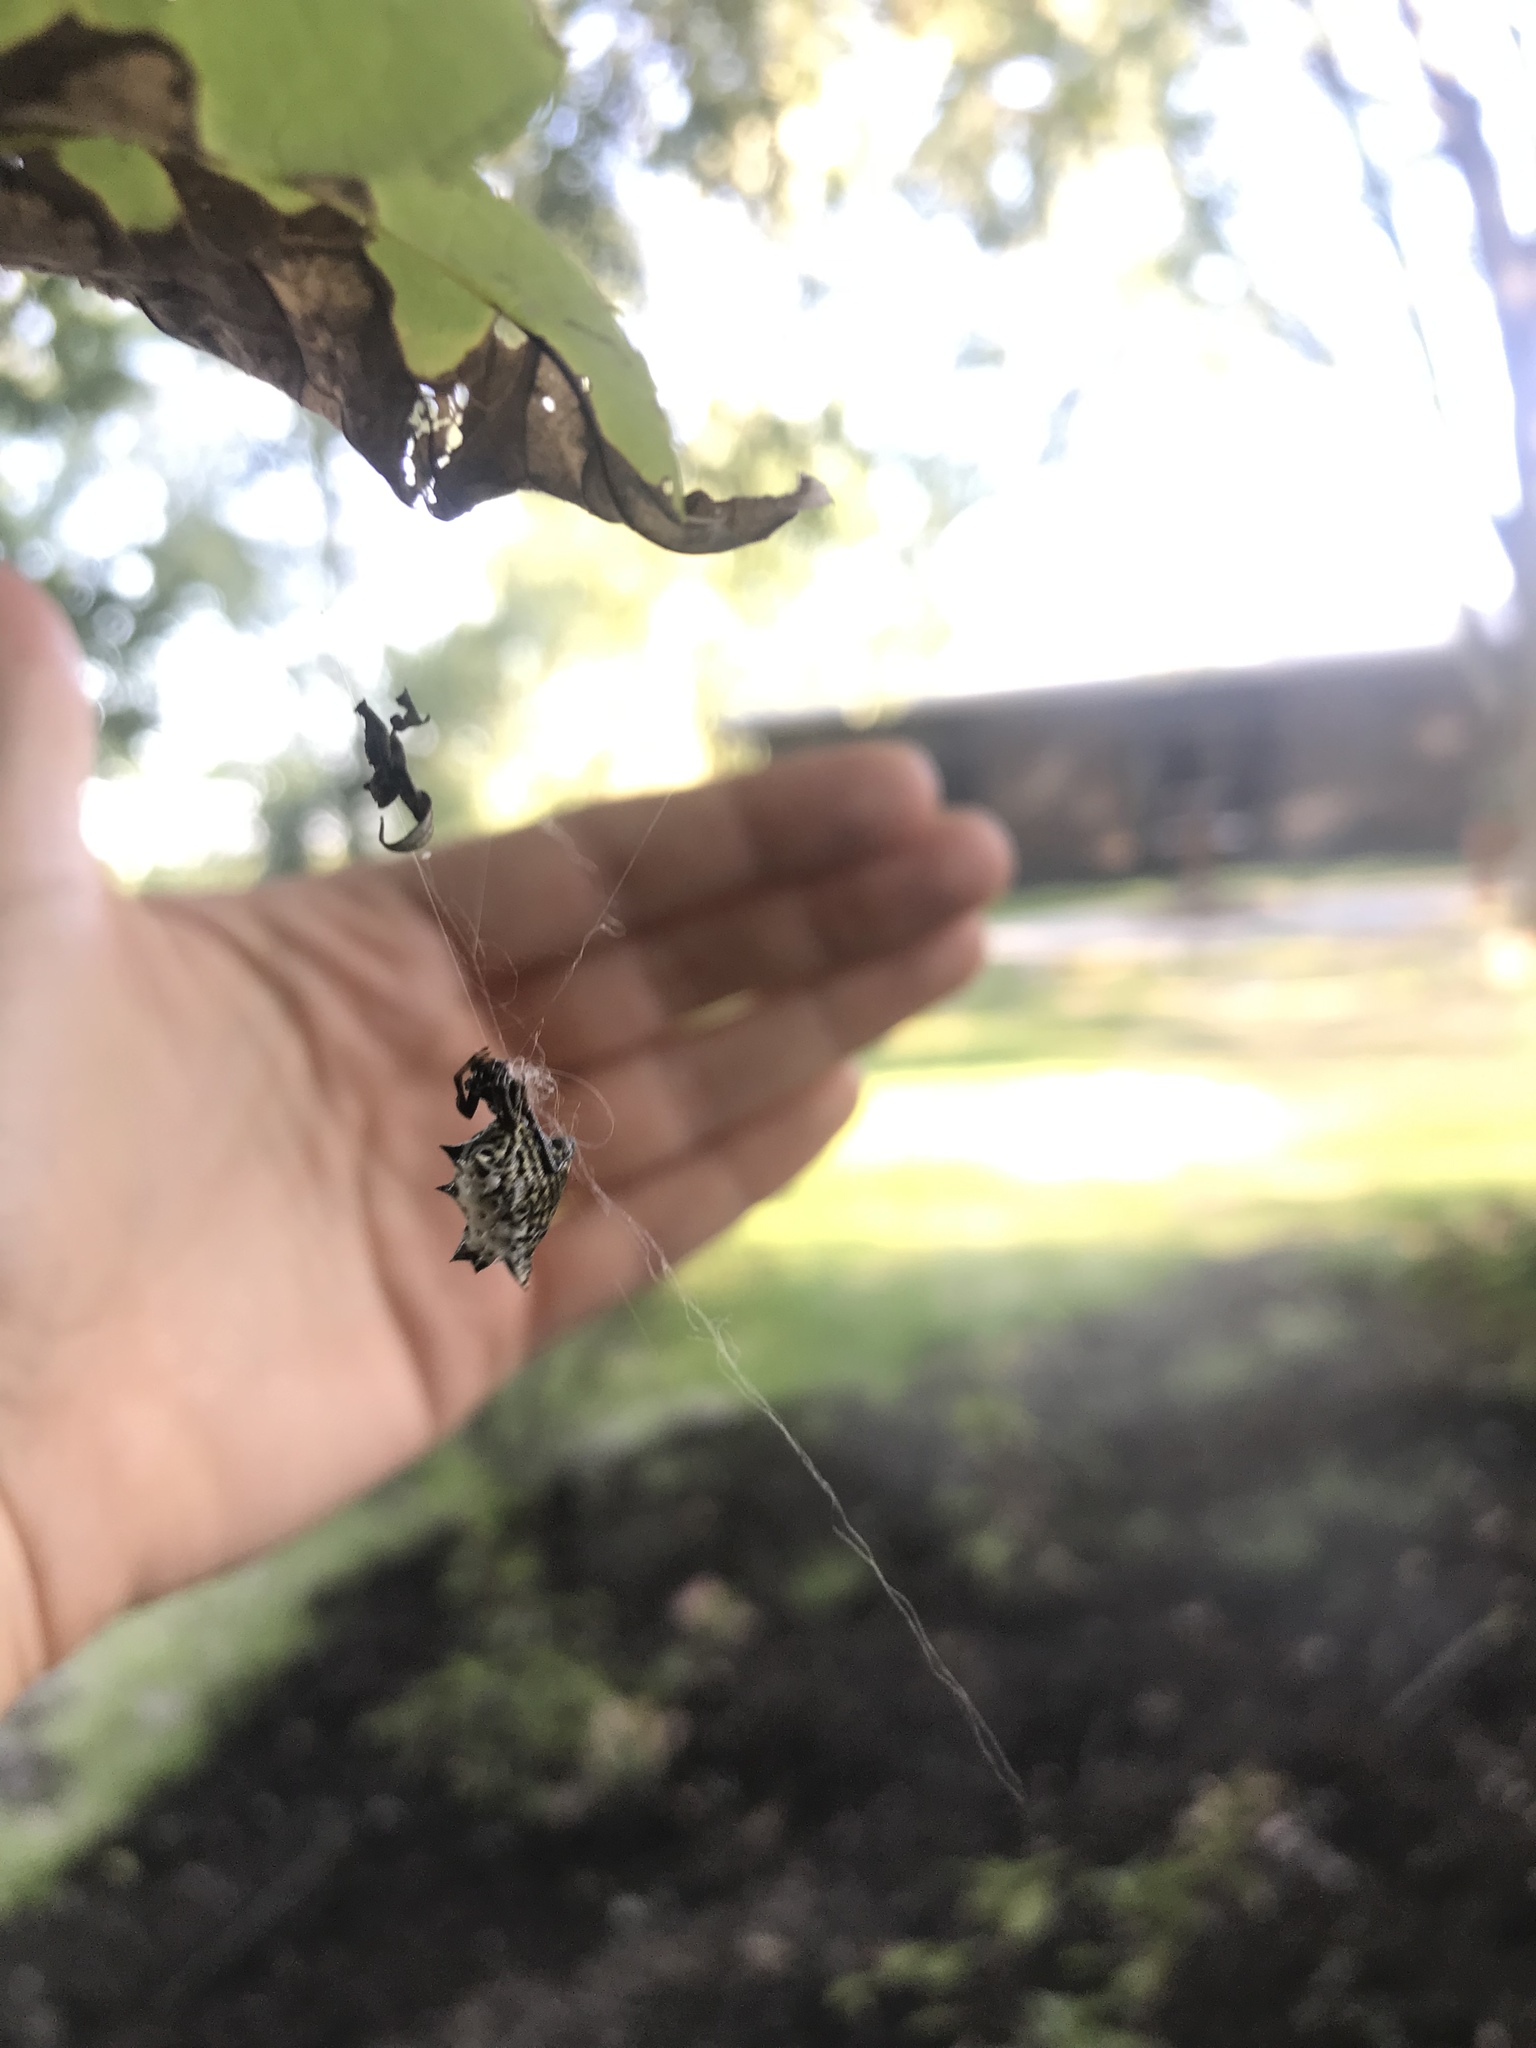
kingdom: Animalia
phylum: Arthropoda
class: Arachnida
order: Araneae
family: Araneidae
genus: Micrathena
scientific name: Micrathena gracilis
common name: Orb weavers
